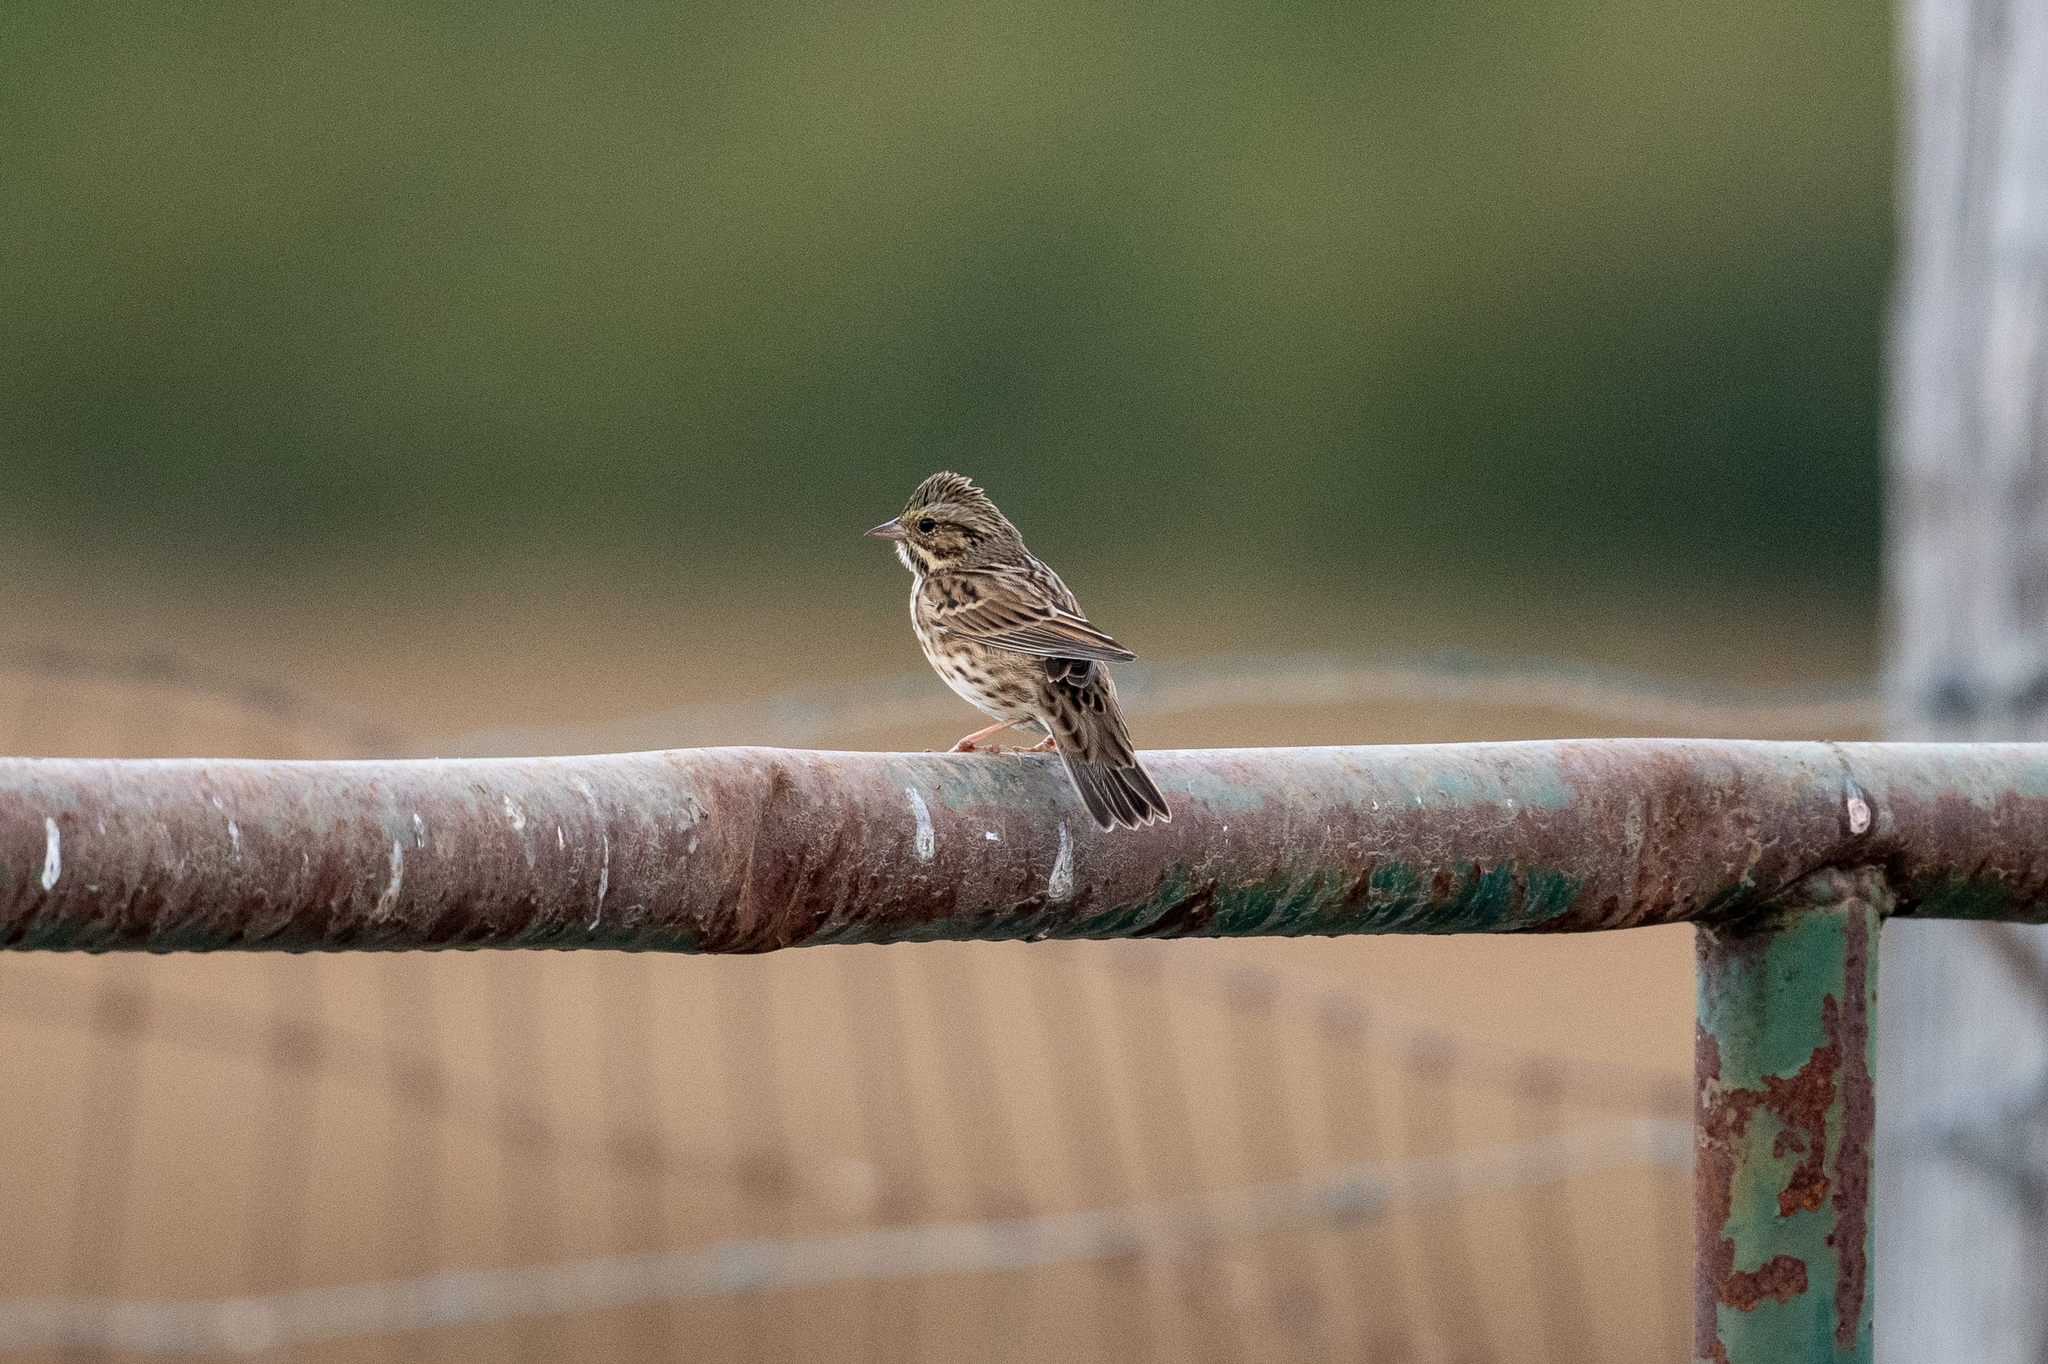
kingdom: Animalia
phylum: Chordata
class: Aves
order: Passeriformes
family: Passerellidae
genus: Passerculus
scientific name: Passerculus sandwichensis
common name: Savannah sparrow
